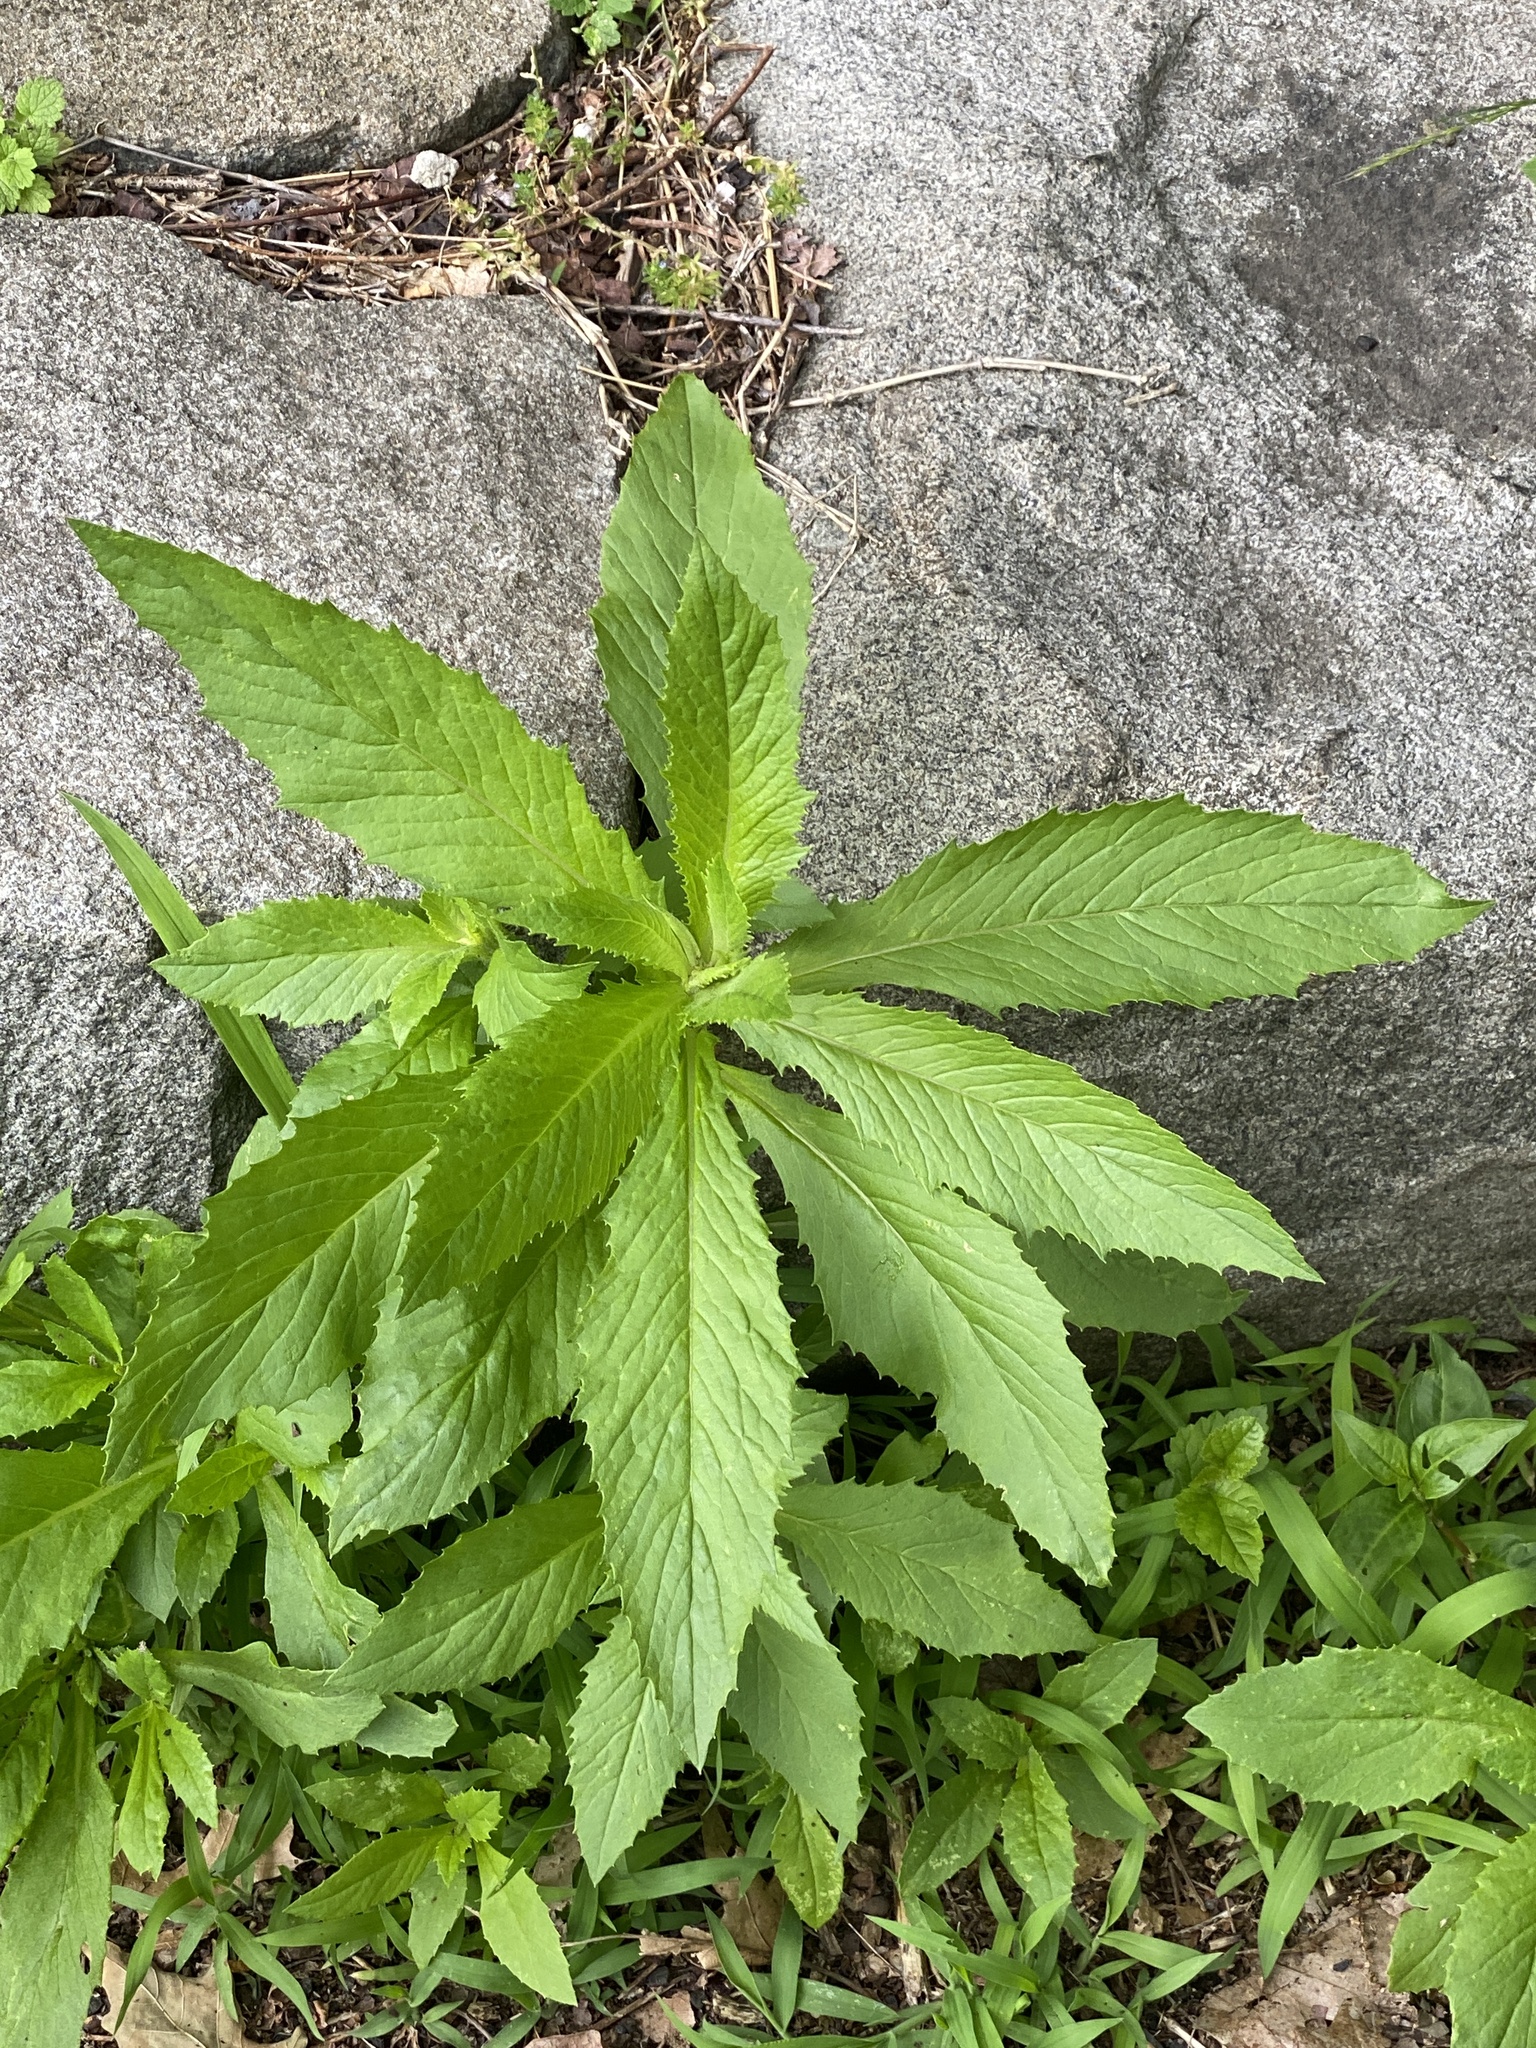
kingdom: Plantae
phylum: Tracheophyta
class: Magnoliopsida
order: Asterales
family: Asteraceae
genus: Erechtites
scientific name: Erechtites hieraciifolius
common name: American burnweed
